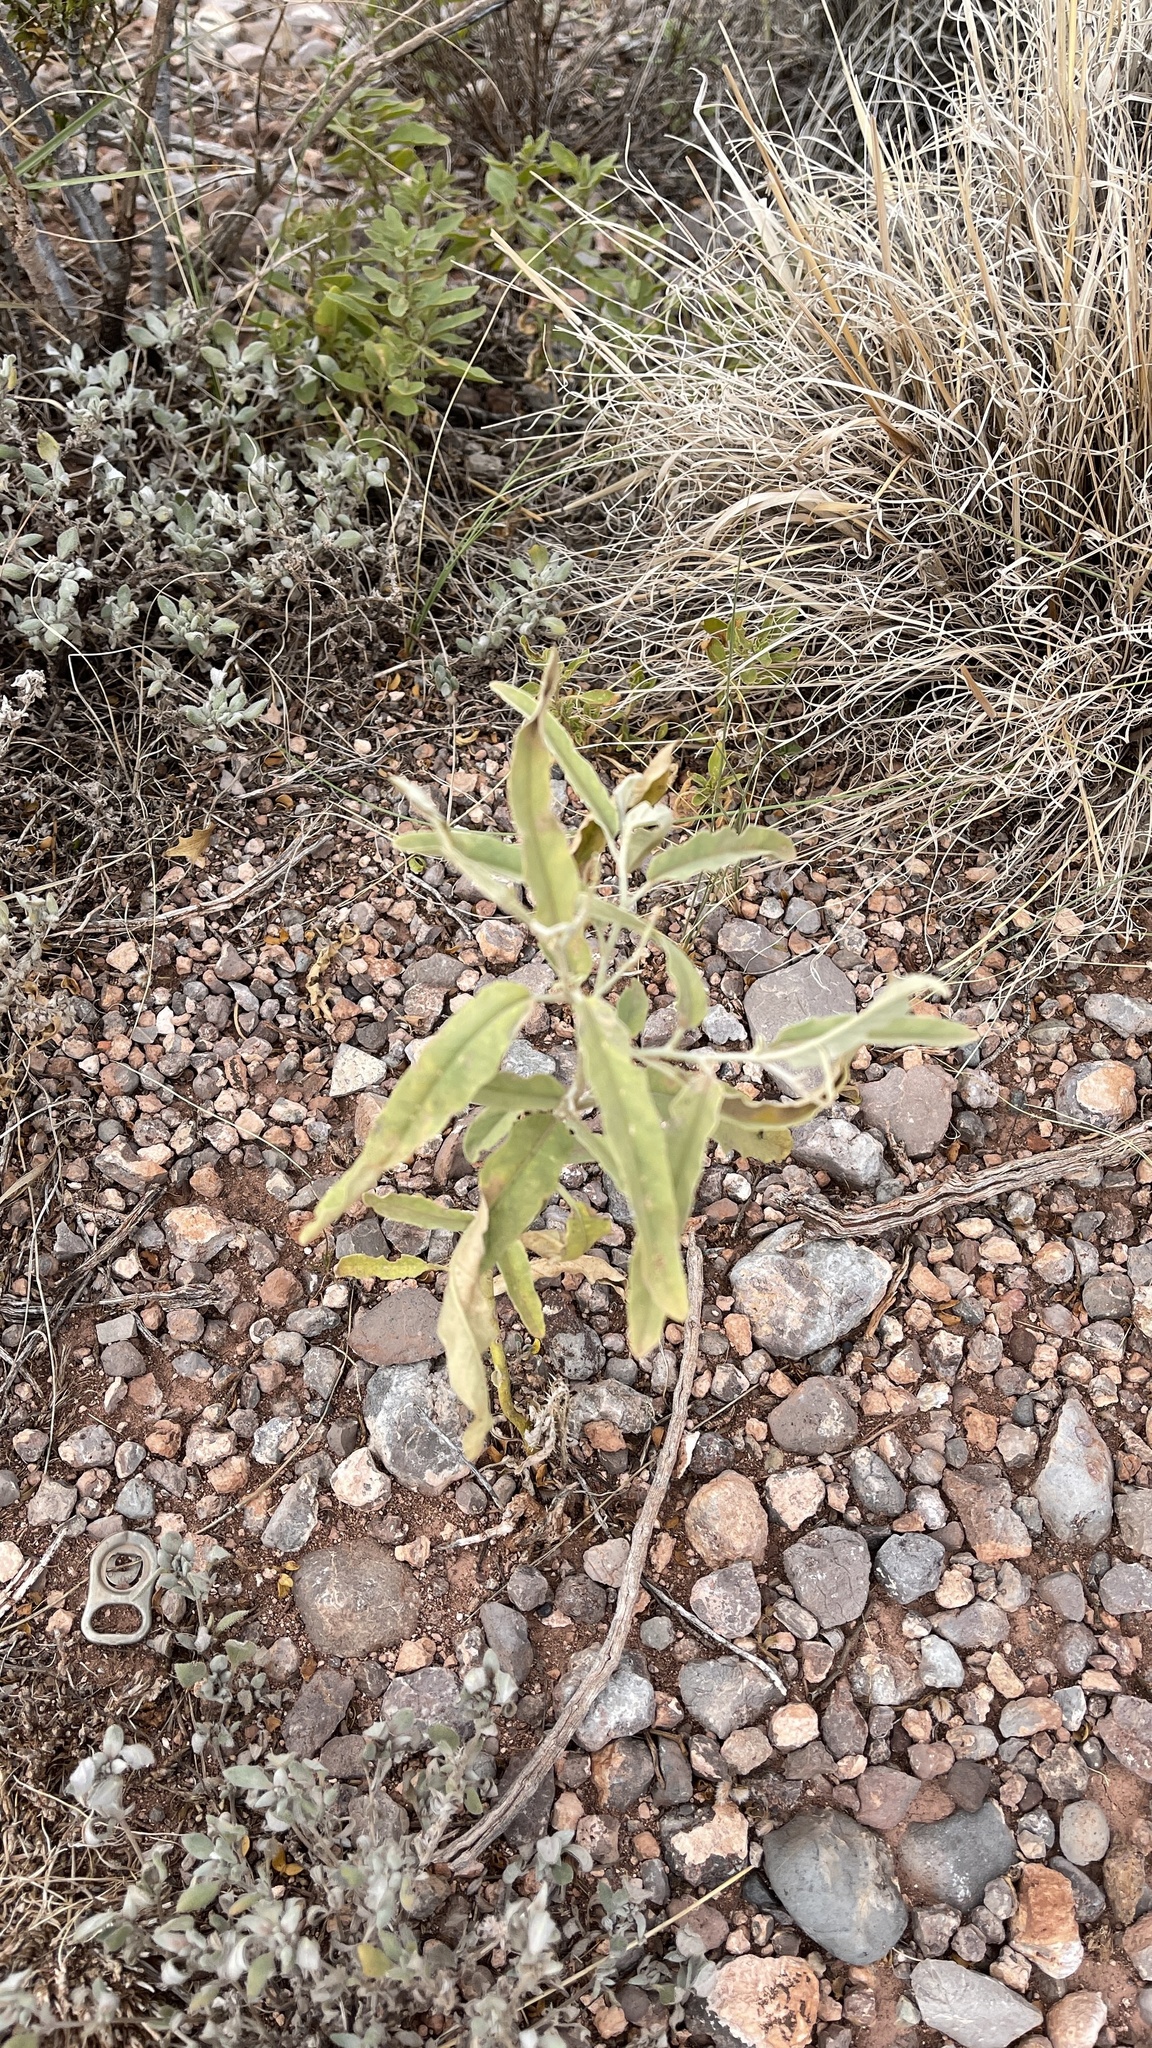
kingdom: Plantae
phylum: Tracheophyta
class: Magnoliopsida
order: Solanales
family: Solanaceae
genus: Solanum
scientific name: Solanum elaeagnifolium
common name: Silverleaf nightshade
